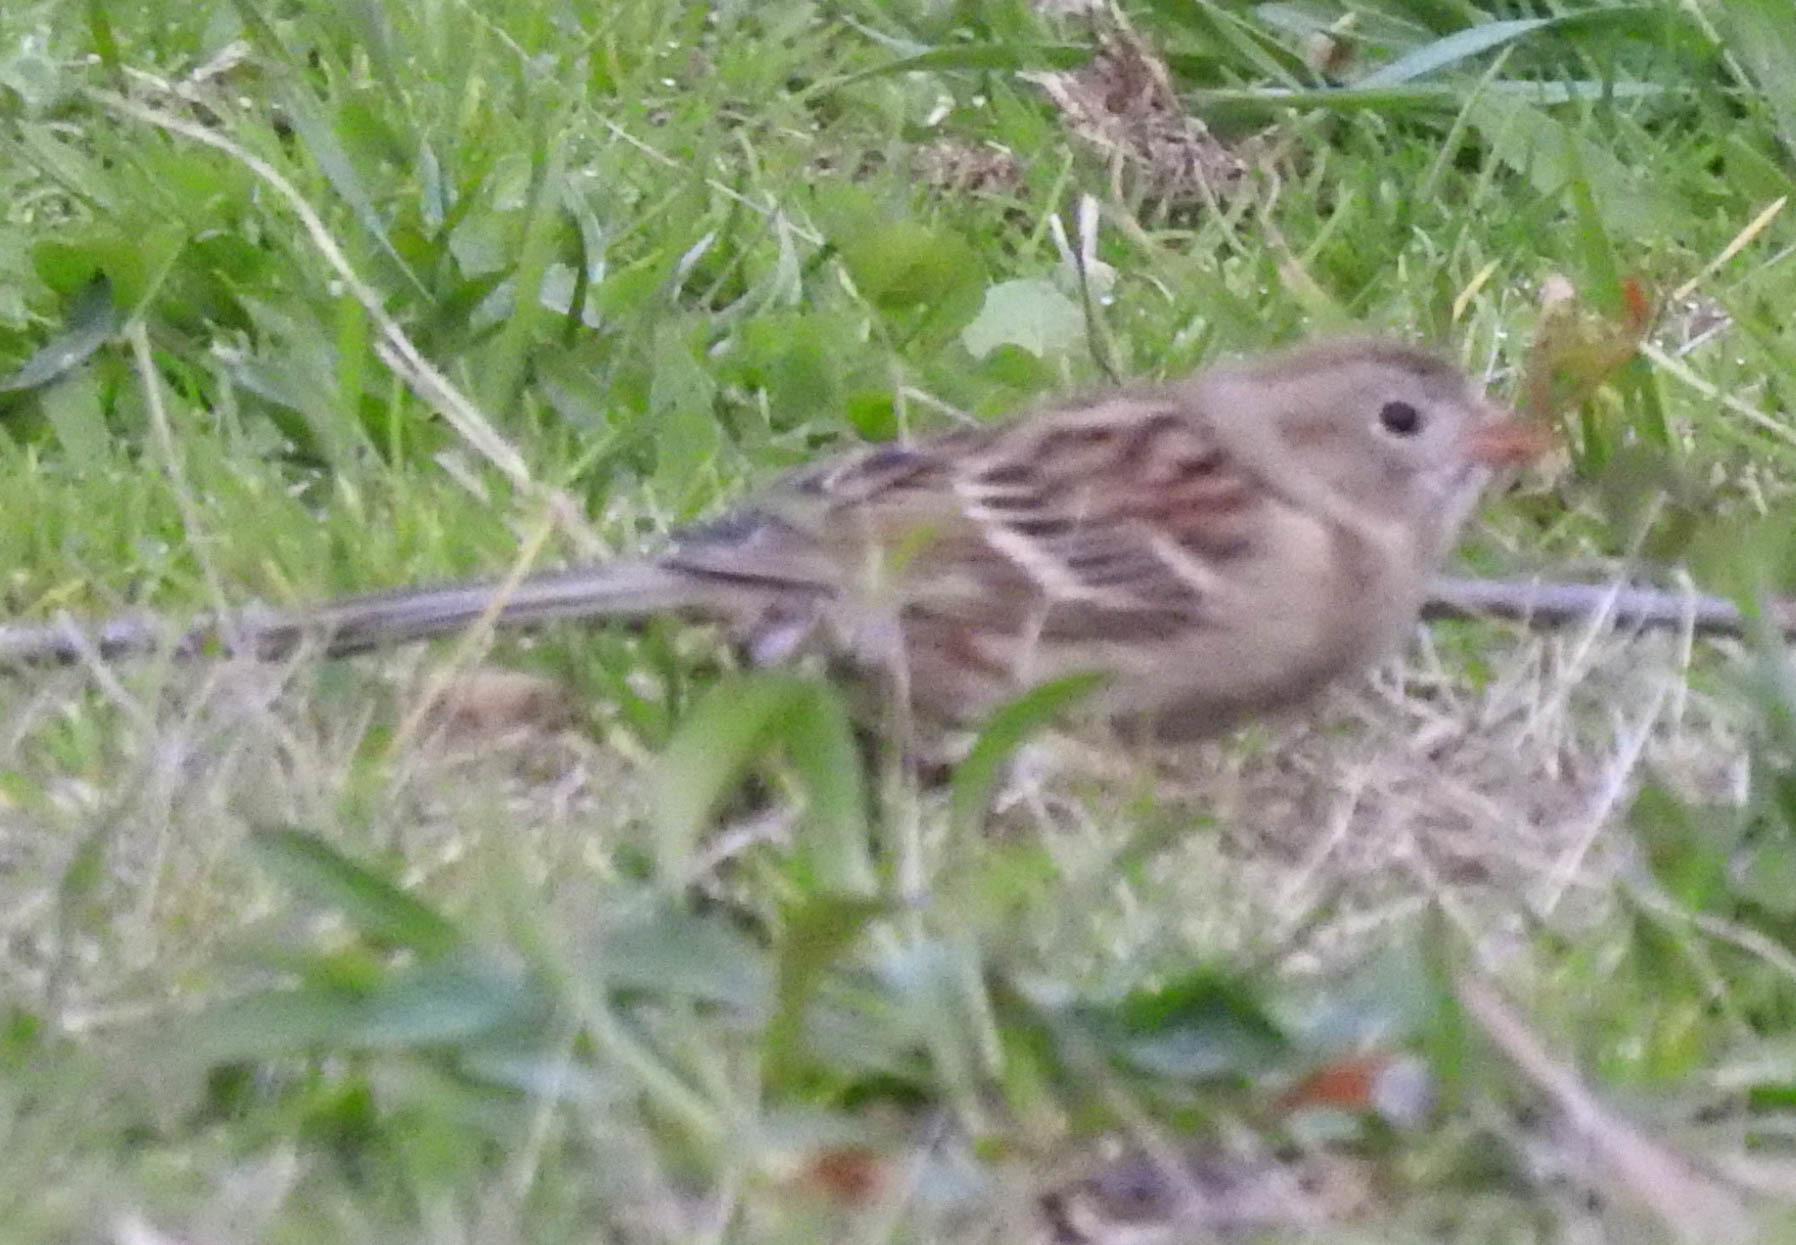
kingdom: Animalia
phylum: Chordata
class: Aves
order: Passeriformes
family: Passerellidae
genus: Spizella
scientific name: Spizella pusilla
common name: Field sparrow
